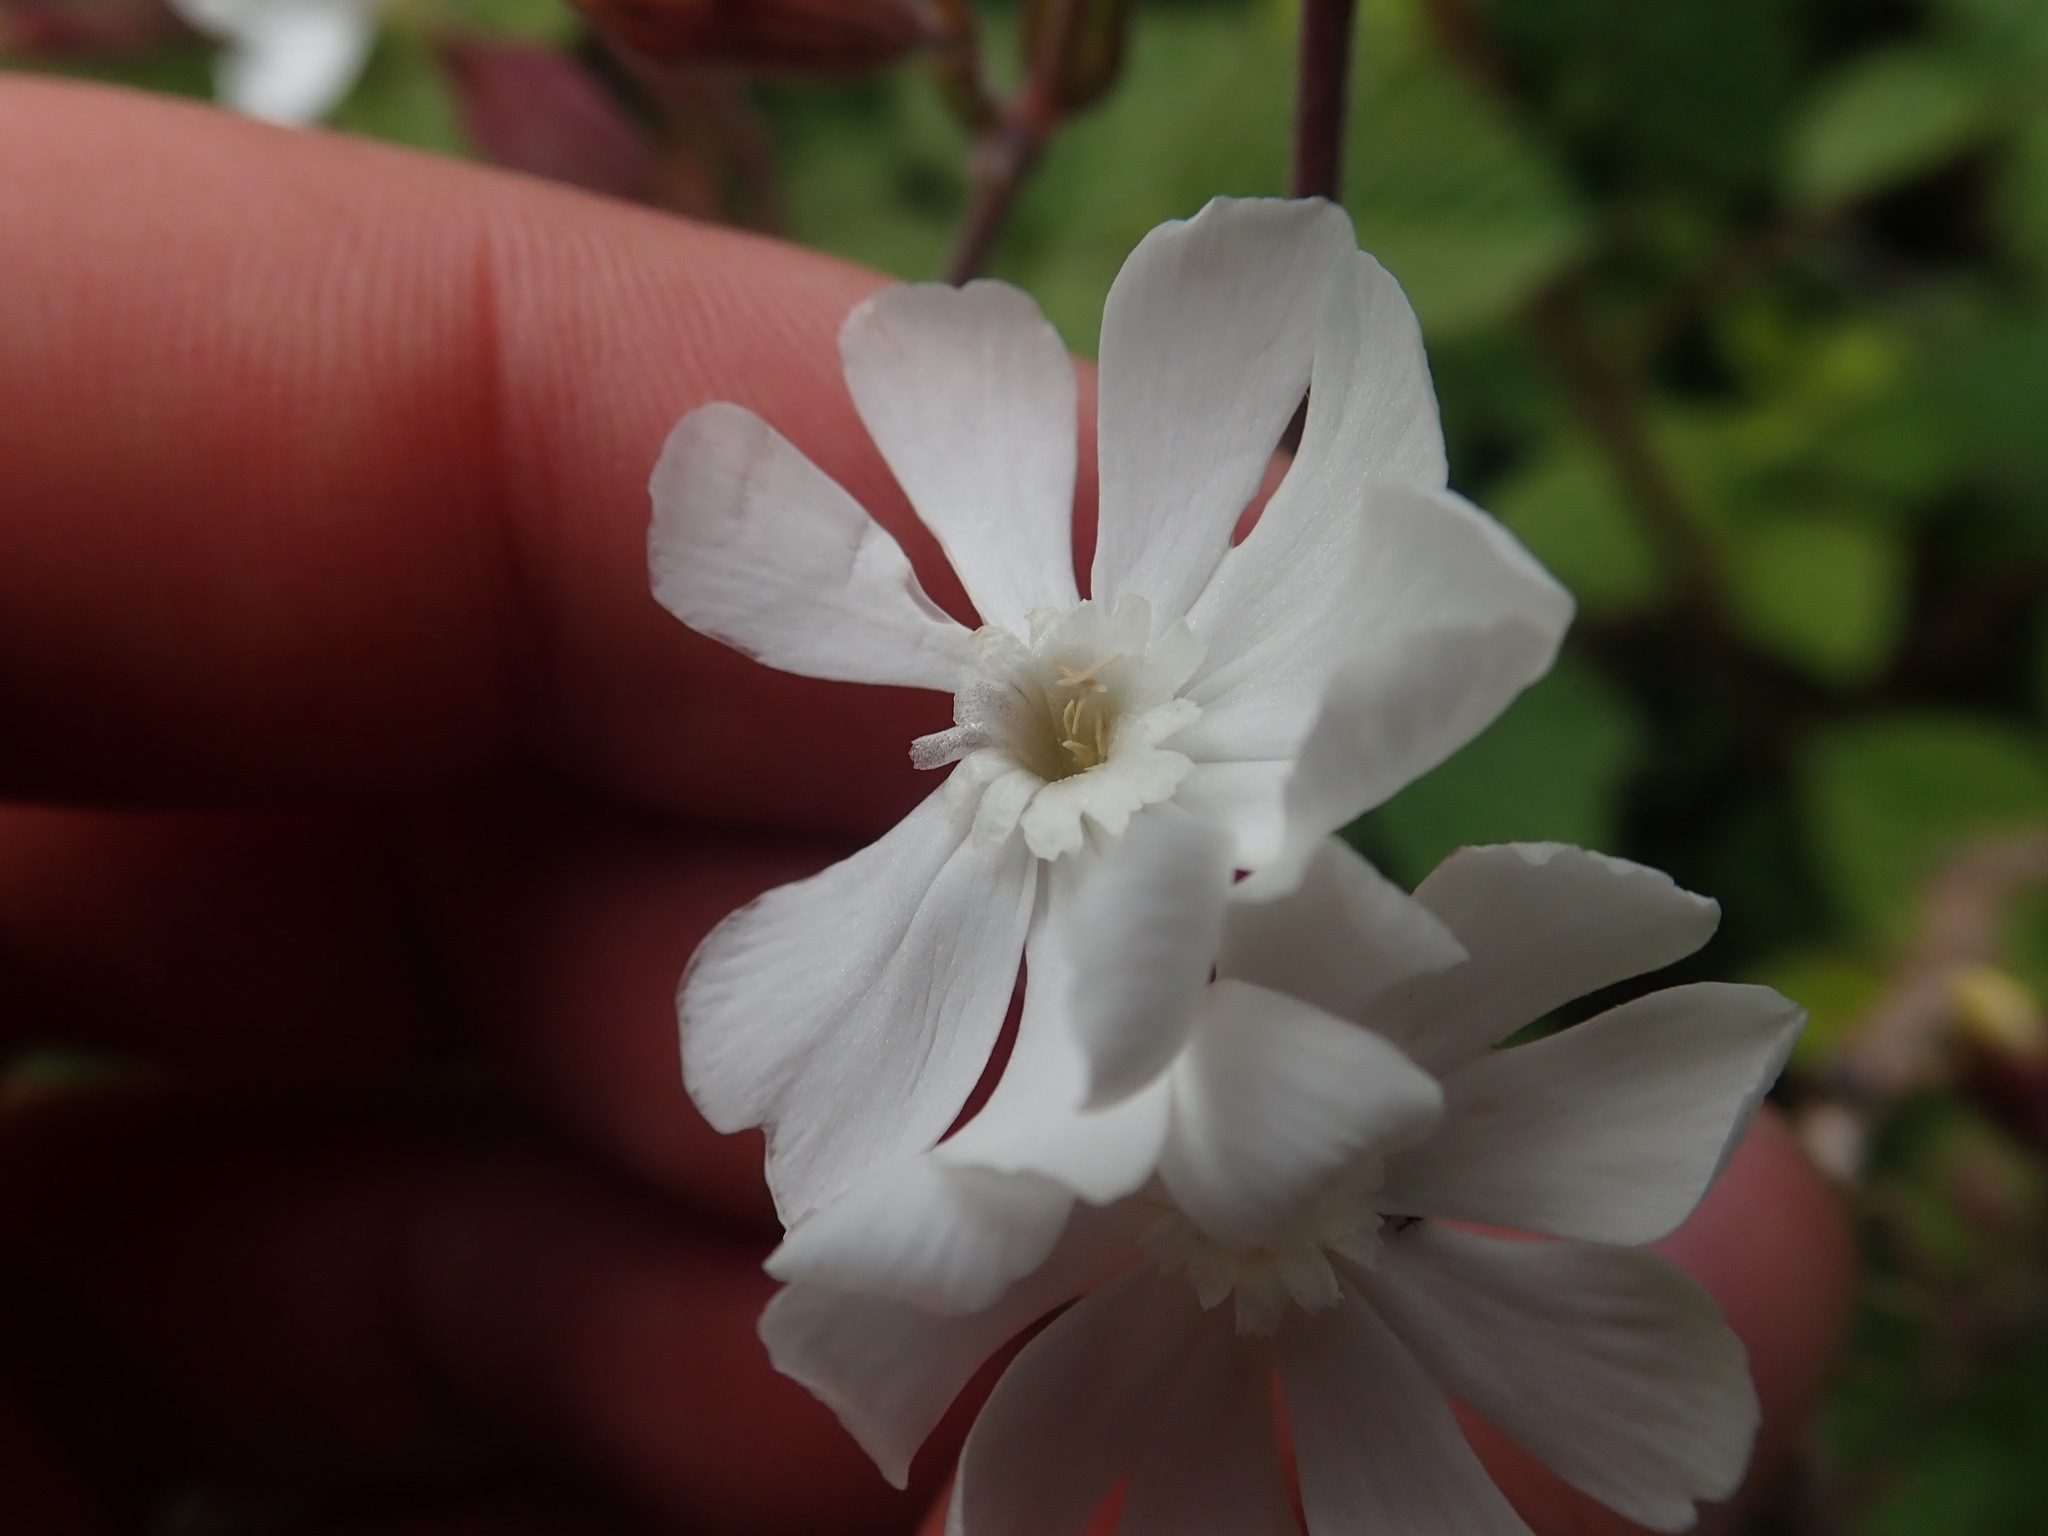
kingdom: Plantae
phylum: Tracheophyta
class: Magnoliopsida
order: Caryophyllales
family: Caryophyllaceae
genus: Silene
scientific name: Silene latifolia
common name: White campion
